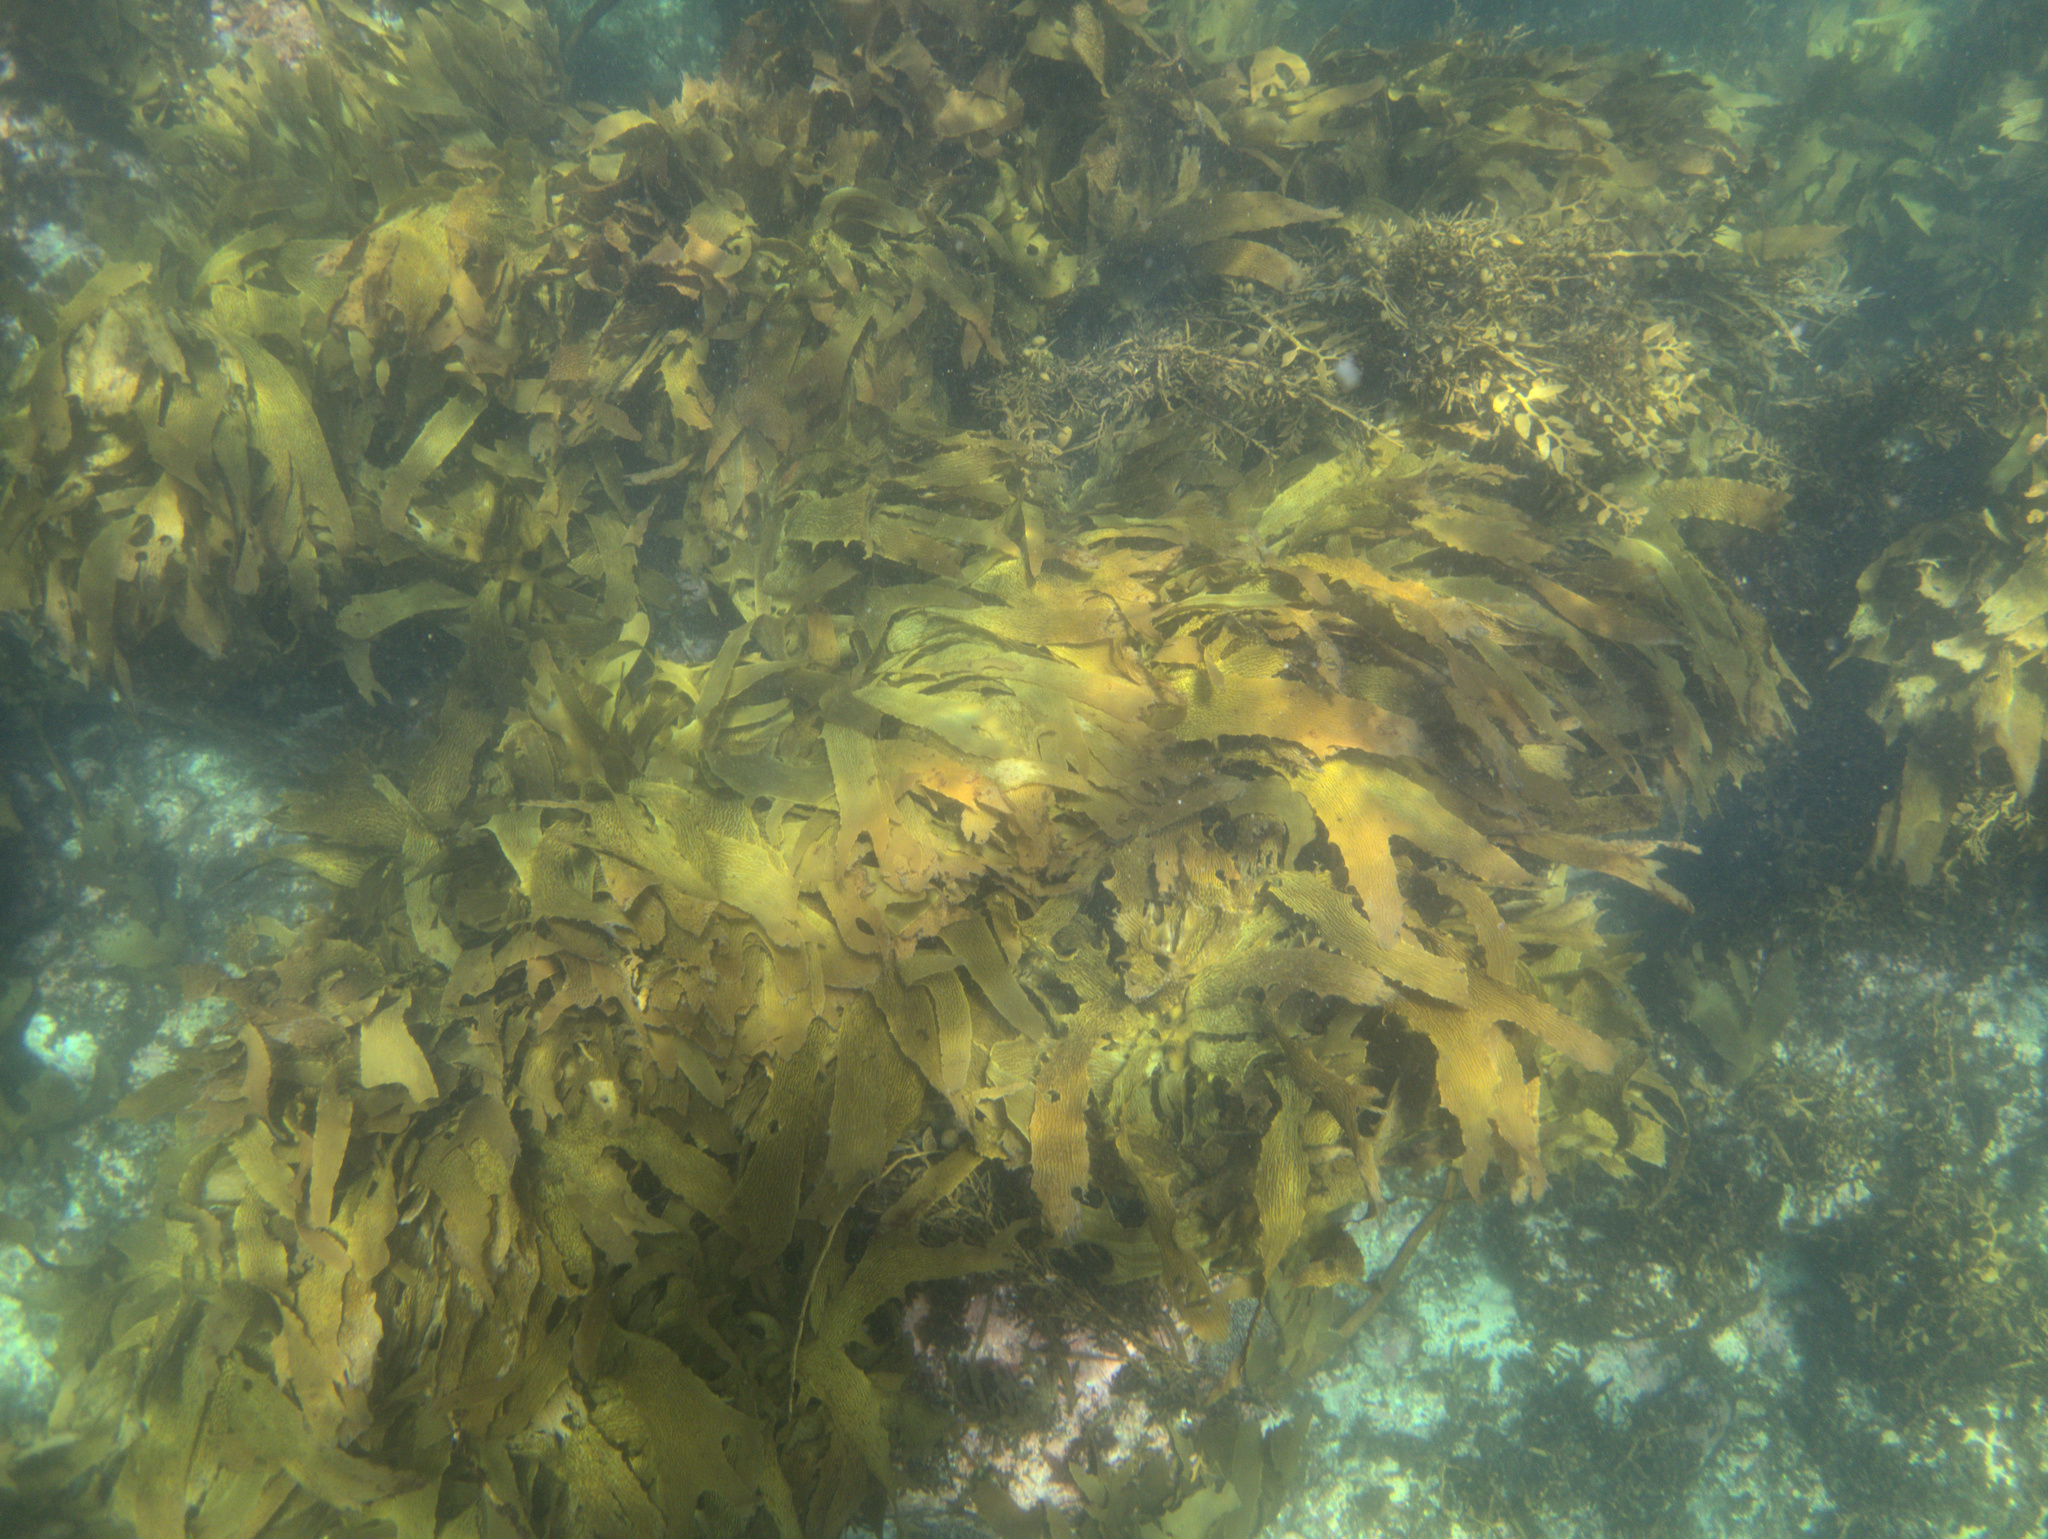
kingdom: Chromista
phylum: Ochrophyta
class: Phaeophyceae
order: Laminariales
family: Lessoniaceae
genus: Ecklonia
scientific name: Ecklonia radiata
